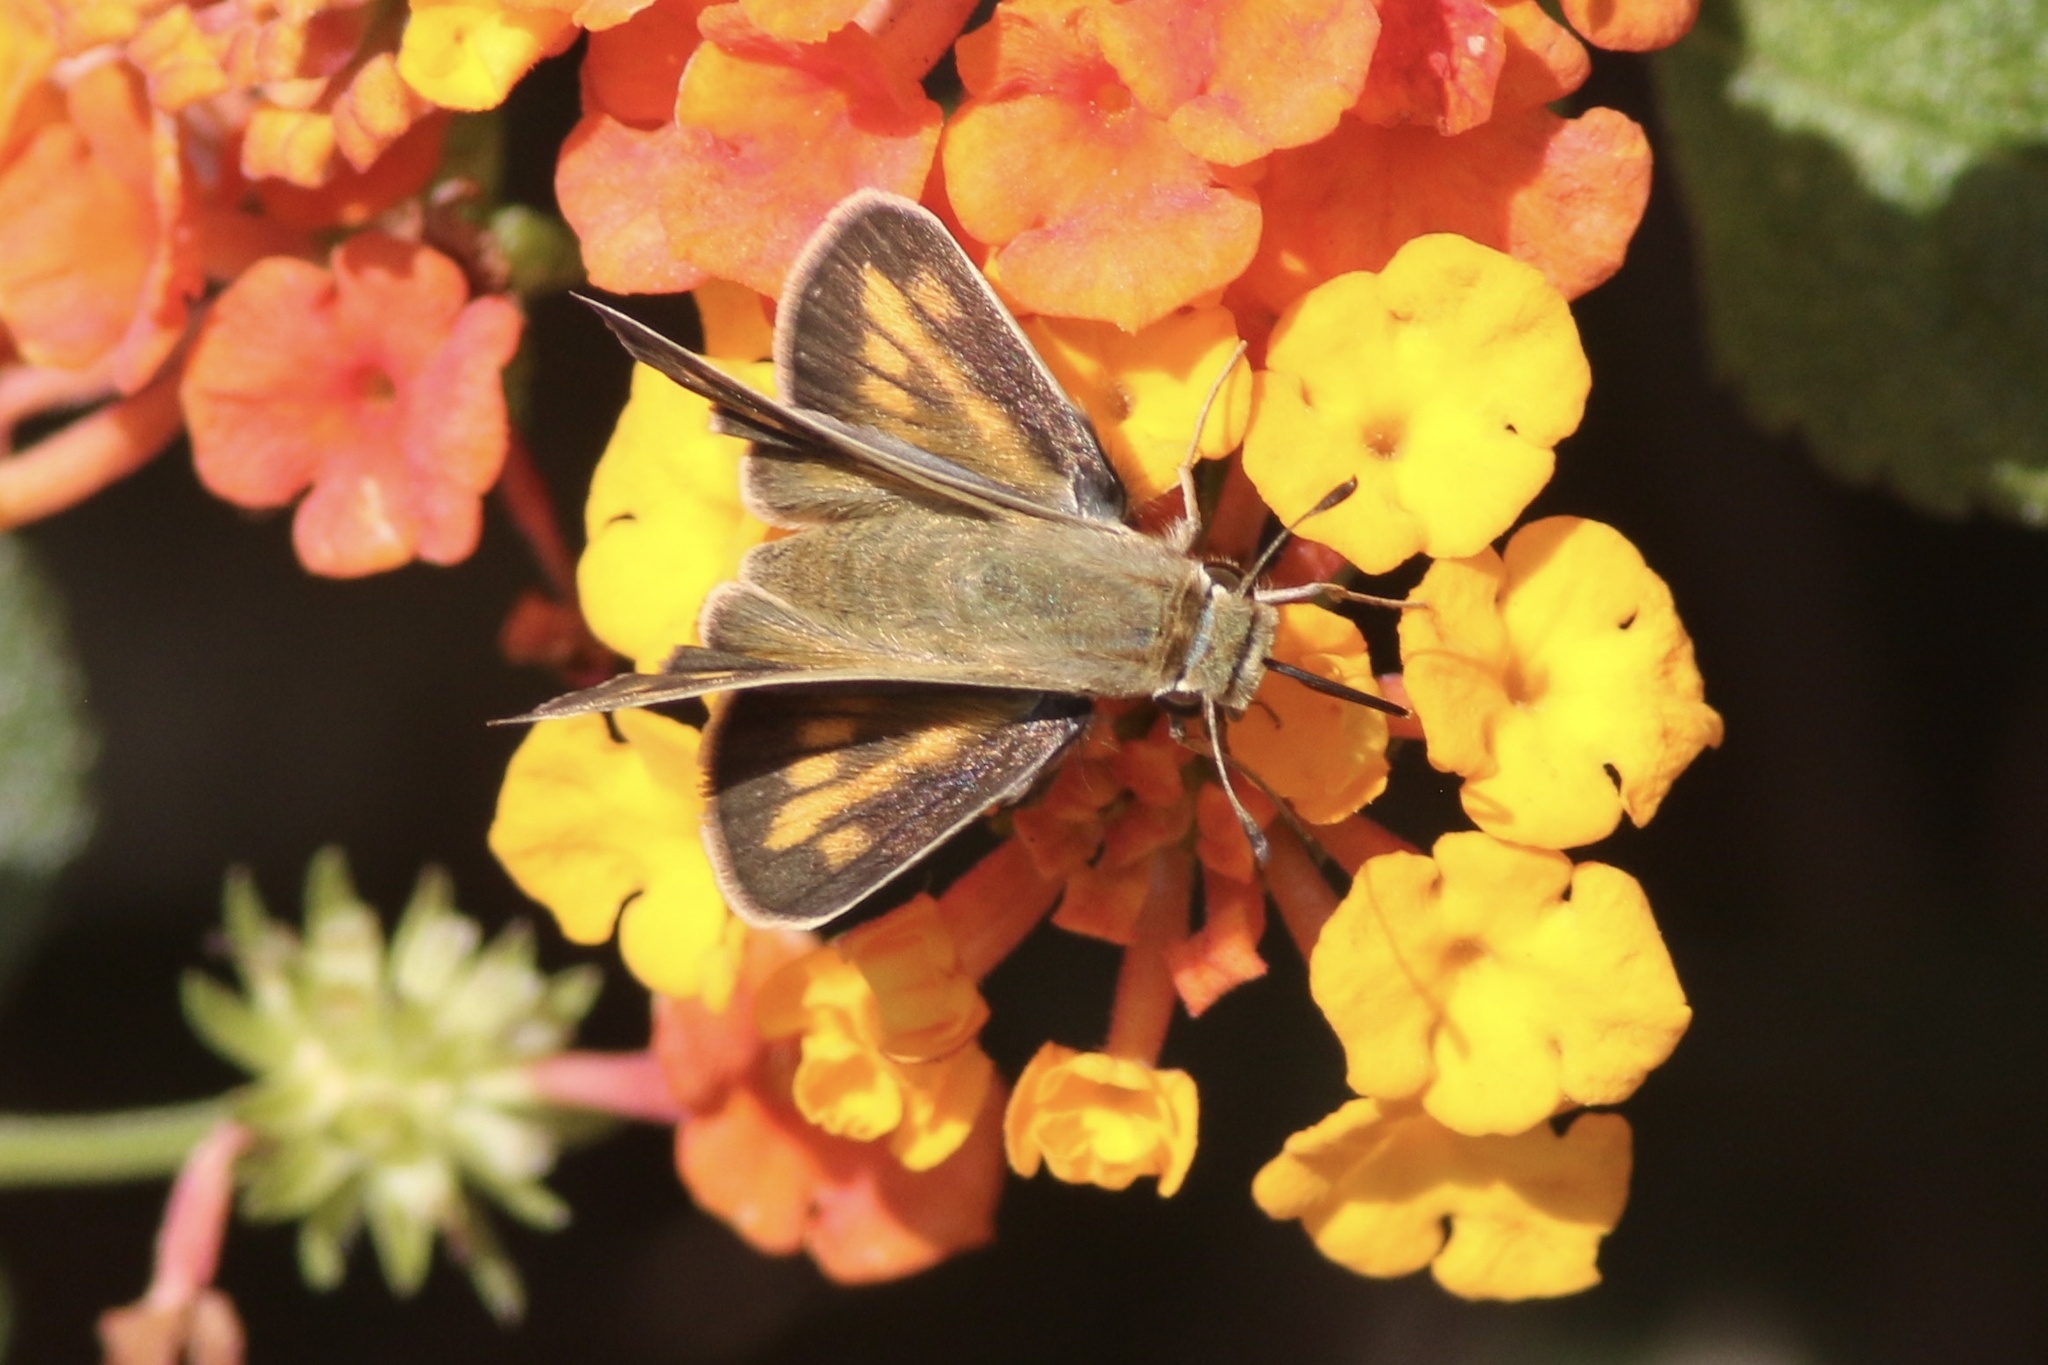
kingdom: Animalia
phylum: Arthropoda
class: Insecta
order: Lepidoptera
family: Hesperiidae
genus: Hylephila
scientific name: Hylephila phyleus
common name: Fiery skipper
